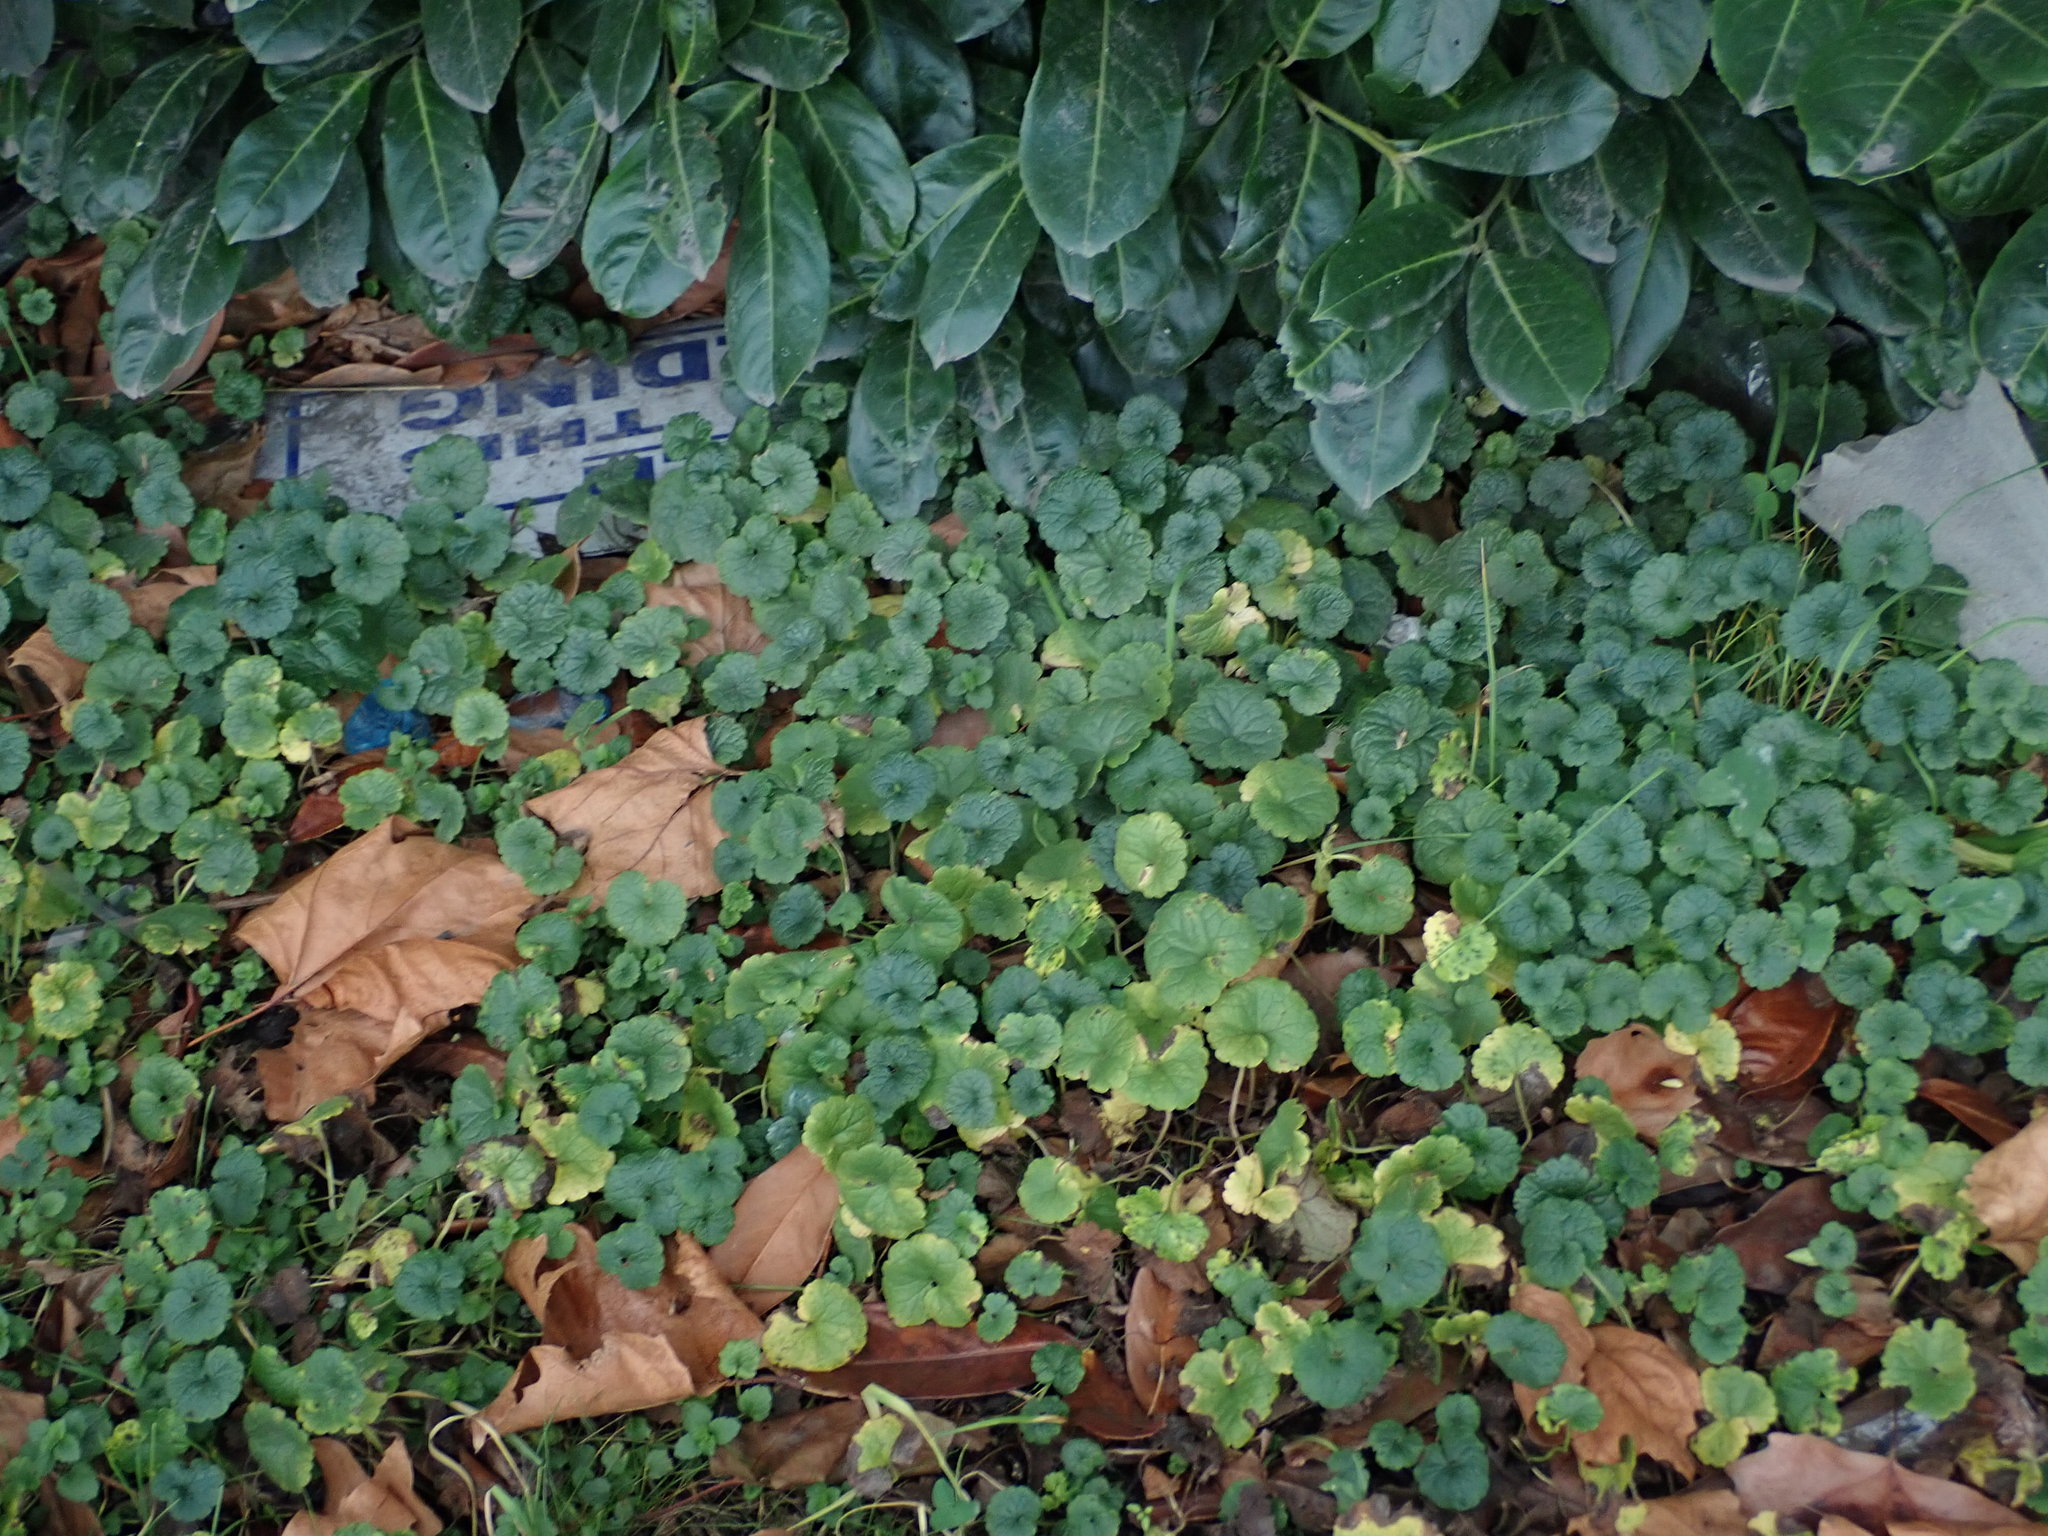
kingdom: Plantae
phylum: Tracheophyta
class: Magnoliopsida
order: Lamiales
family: Lamiaceae
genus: Glechoma
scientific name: Glechoma hederacea
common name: Ground ivy
